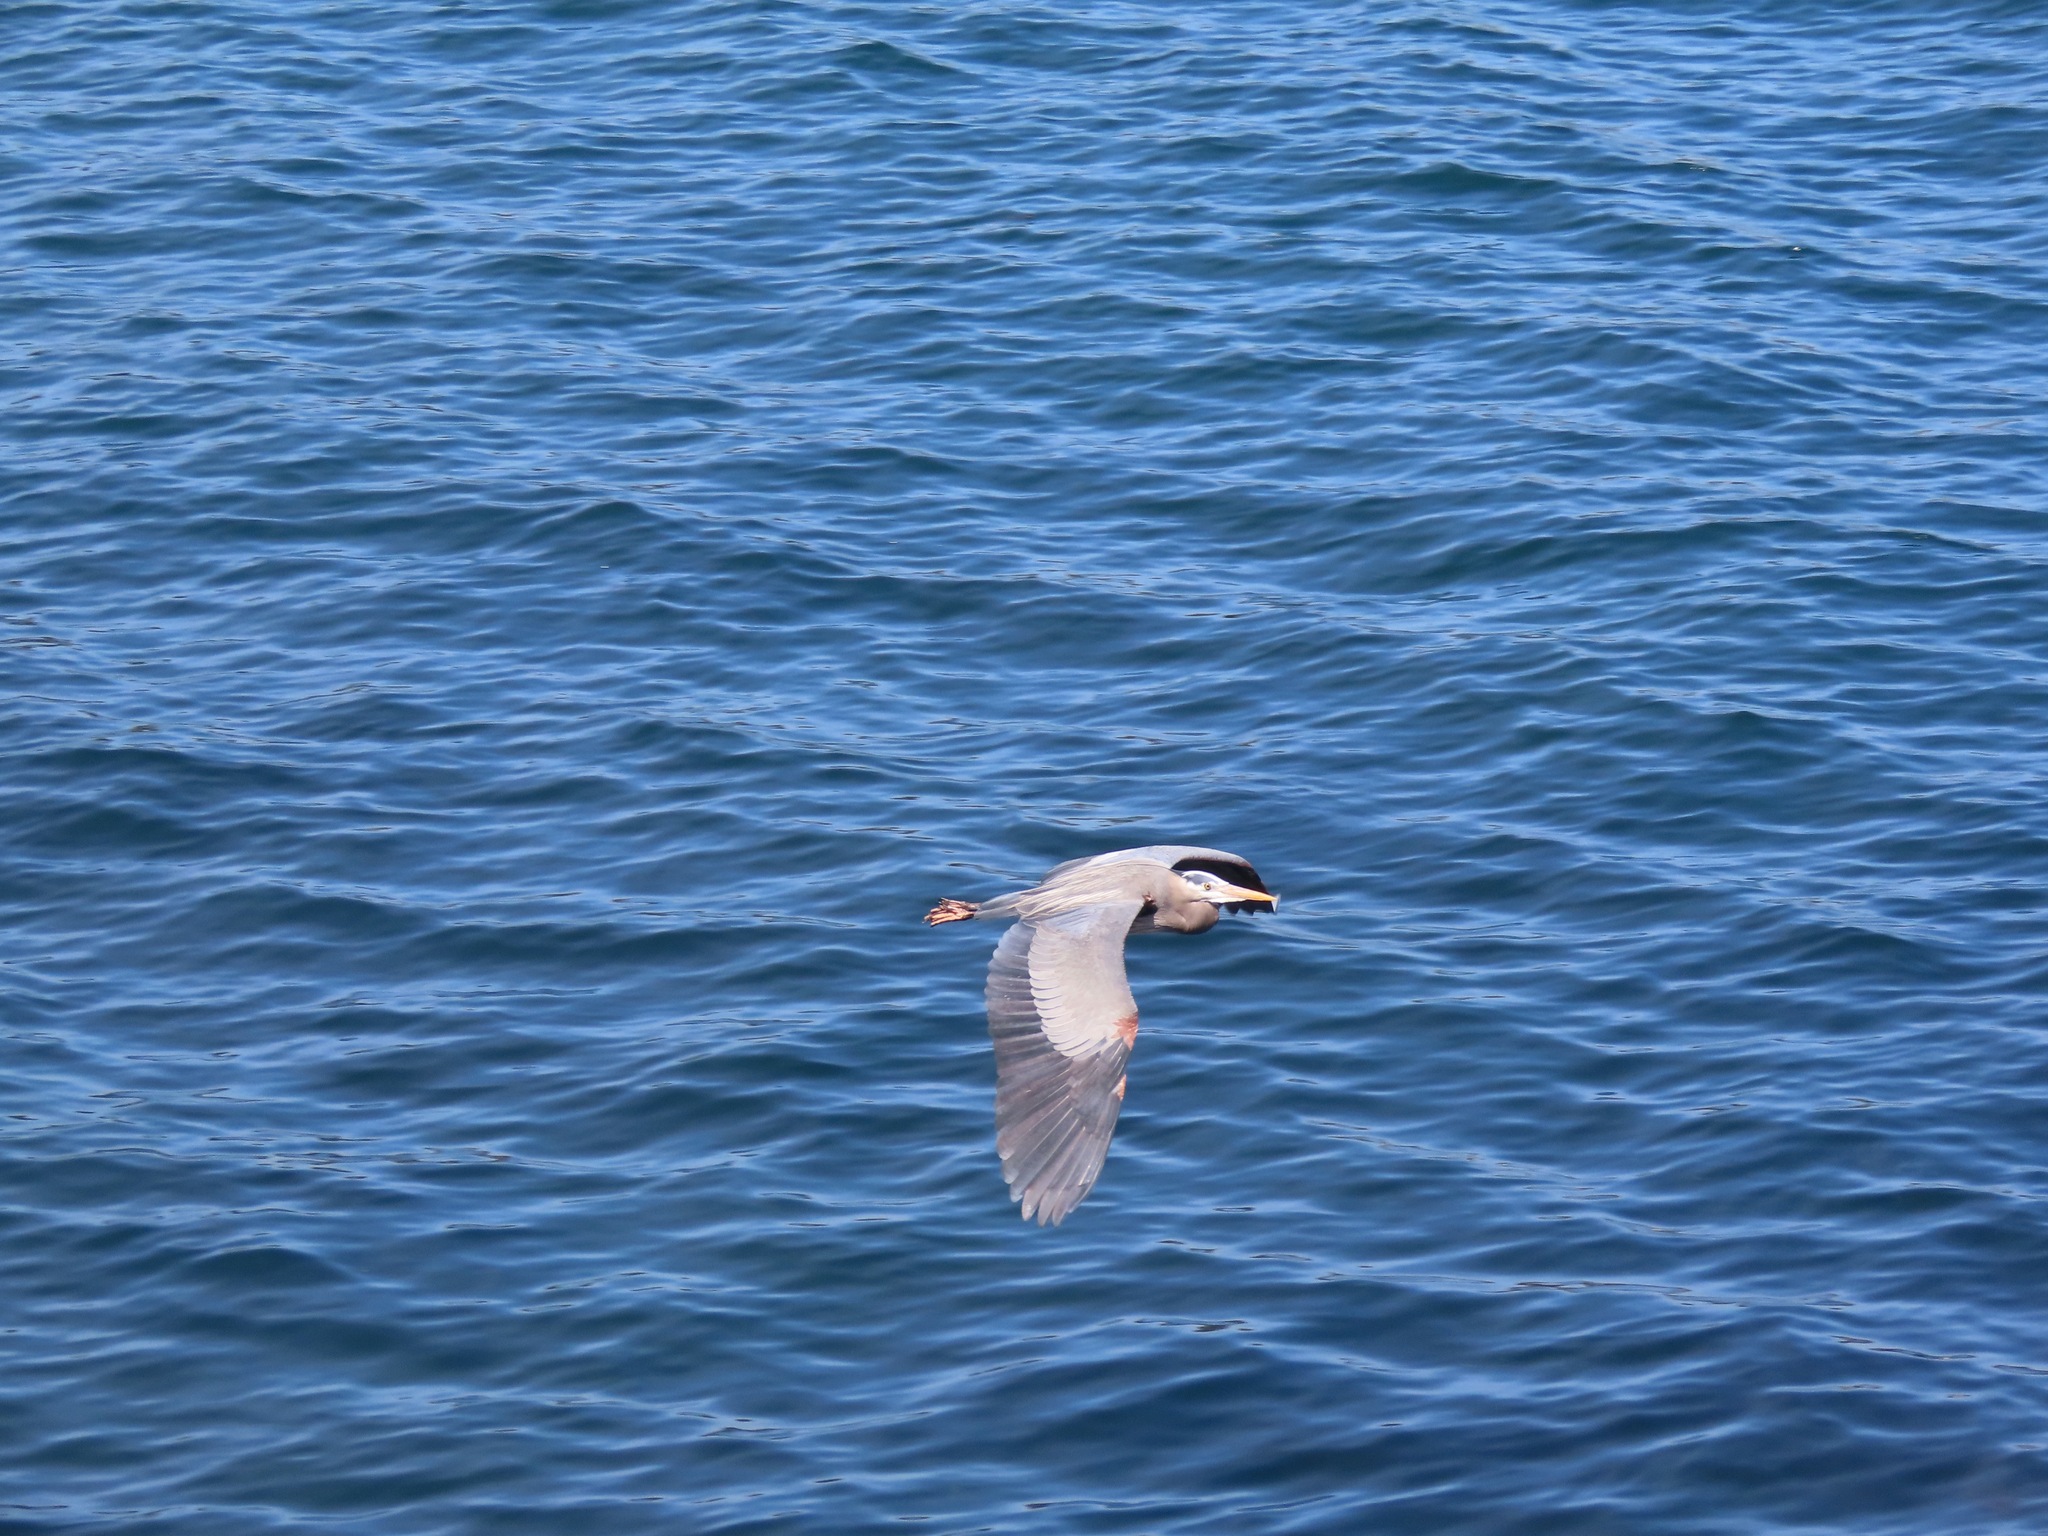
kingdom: Animalia
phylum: Chordata
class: Aves
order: Pelecaniformes
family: Ardeidae
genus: Ardea
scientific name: Ardea herodias
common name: Great blue heron
